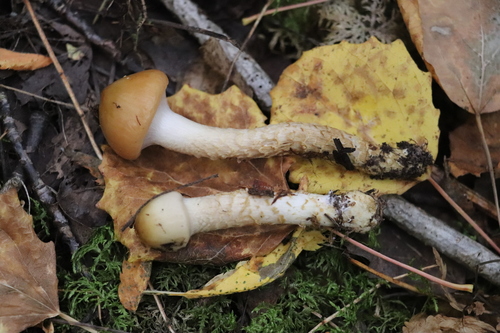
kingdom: Fungi
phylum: Basidiomycota
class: Agaricomycetes
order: Agaricales
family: Cortinariaceae
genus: Cortinarius
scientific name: Cortinarius trivialis
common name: Girdled webcap
